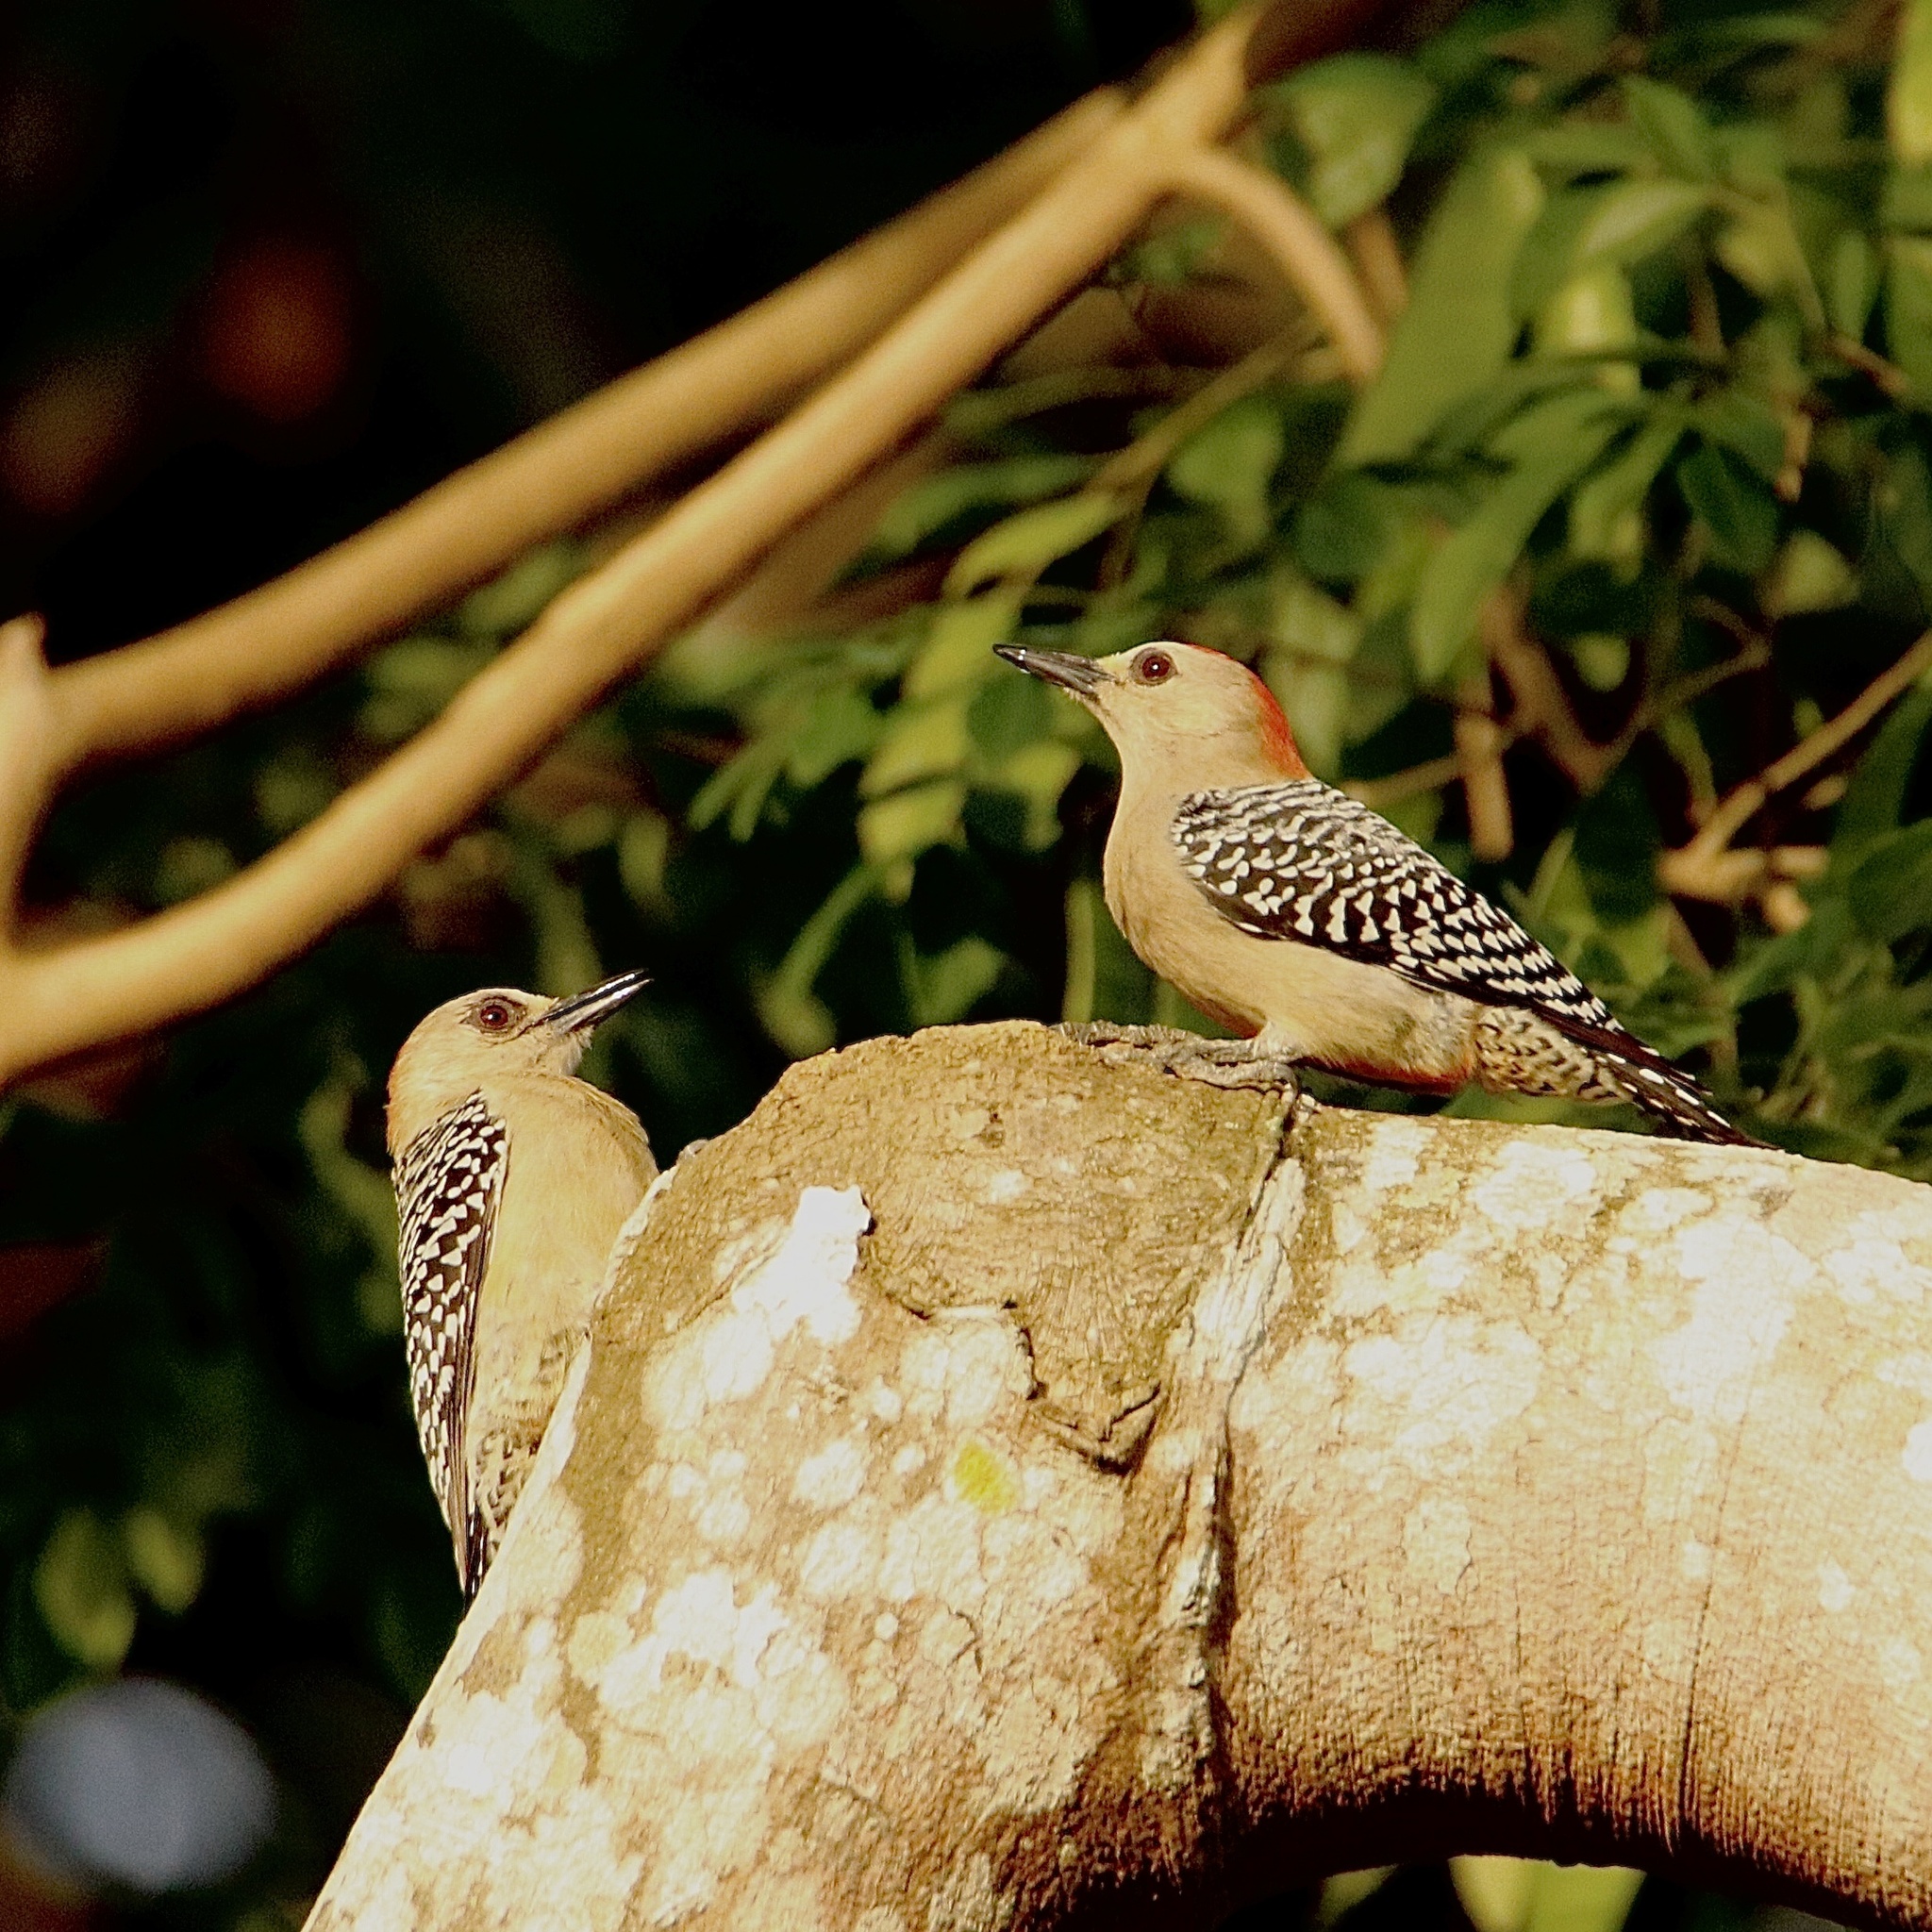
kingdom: Animalia
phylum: Chordata
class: Aves
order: Piciformes
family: Picidae
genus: Melanerpes
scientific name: Melanerpes rubricapillus
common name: Red-crowned woodpecker
